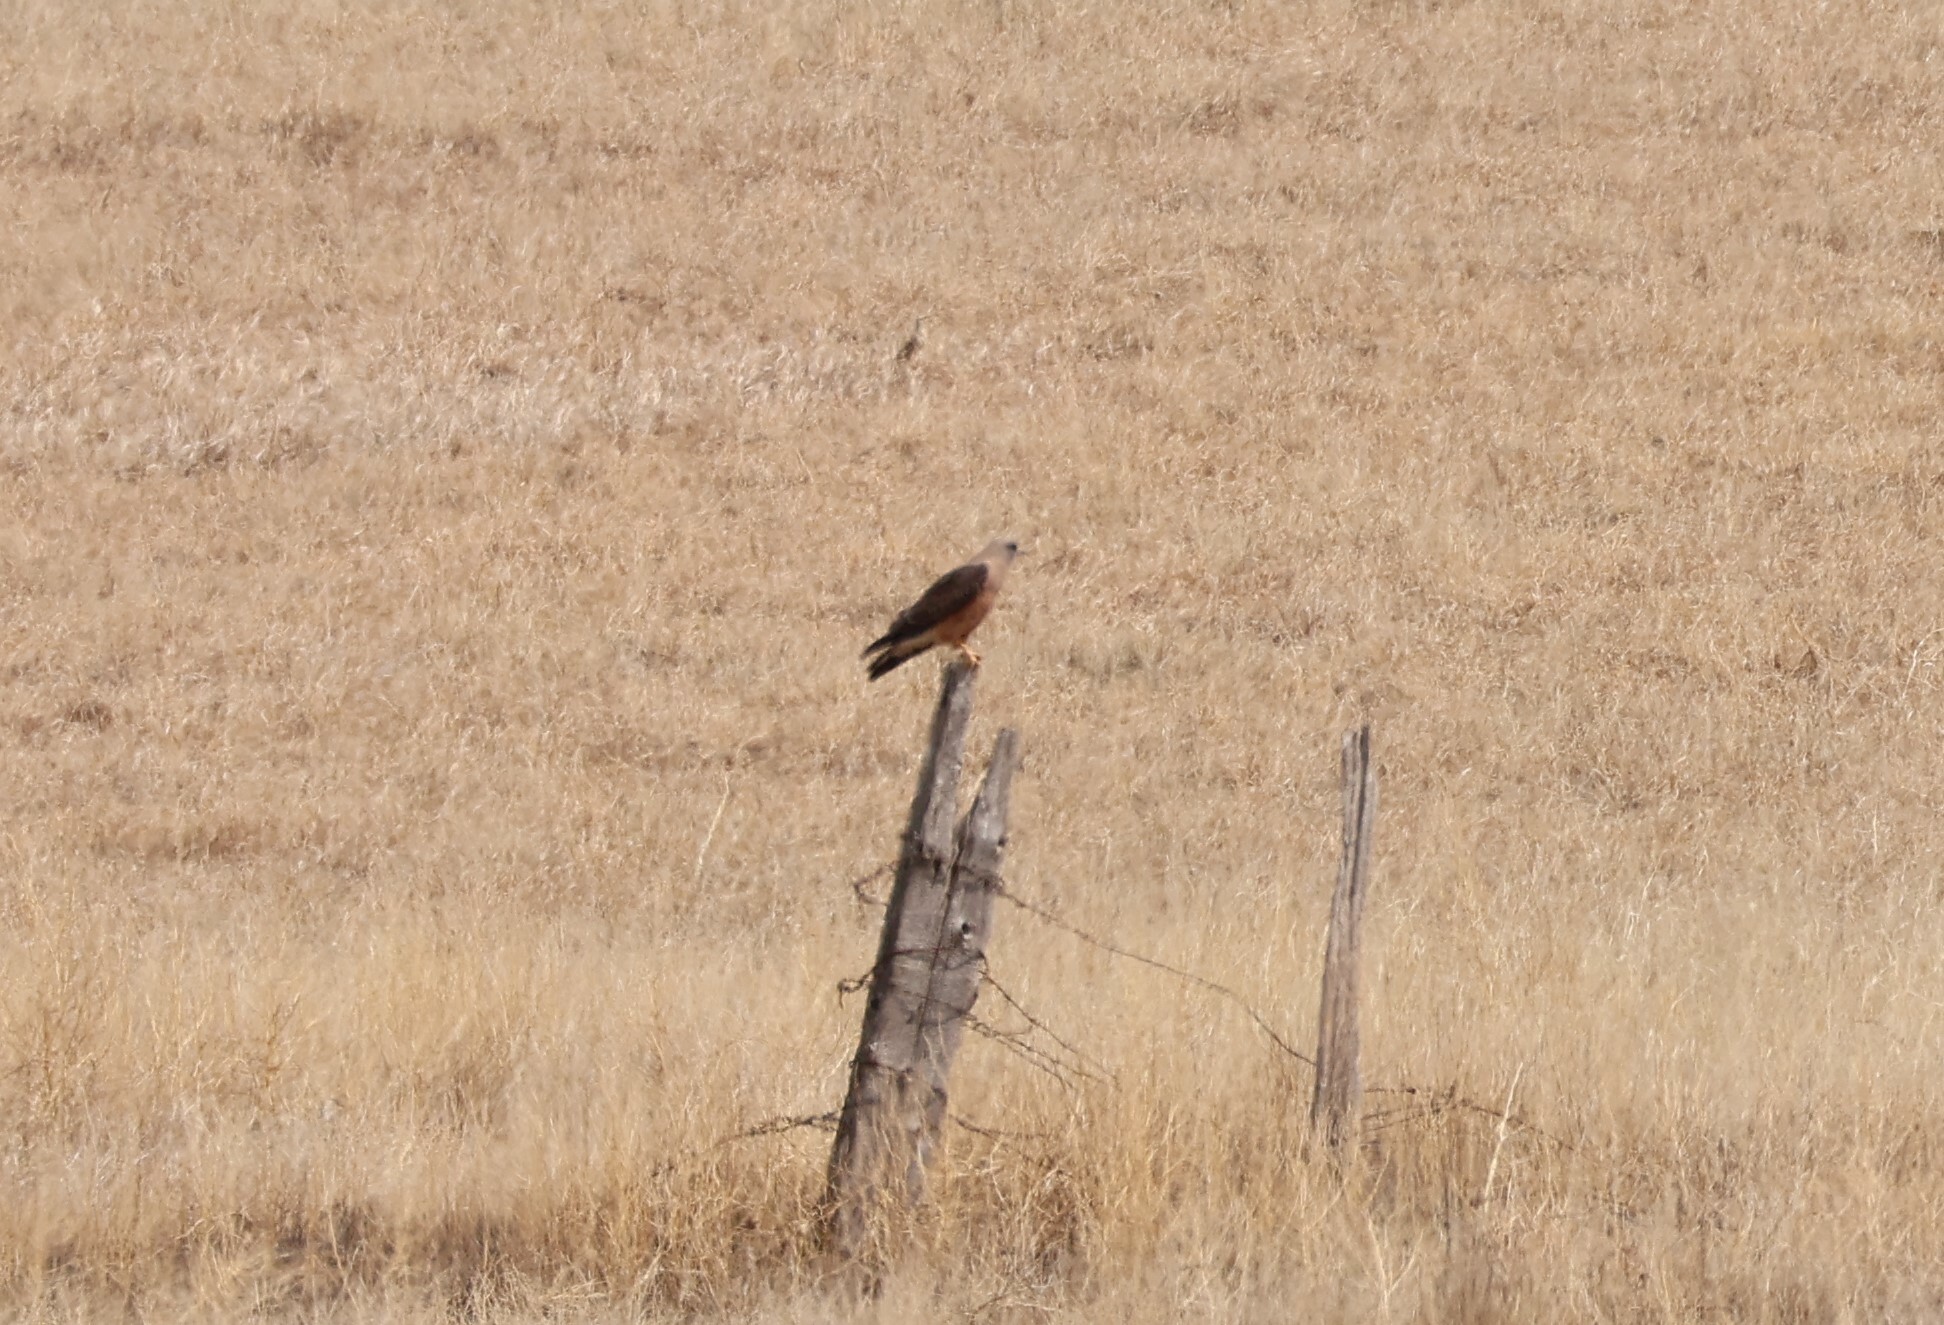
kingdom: Animalia
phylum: Chordata
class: Aves
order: Accipitriformes
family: Accipitridae
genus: Buteo
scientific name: Buteo swainsoni
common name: Swainson's hawk
